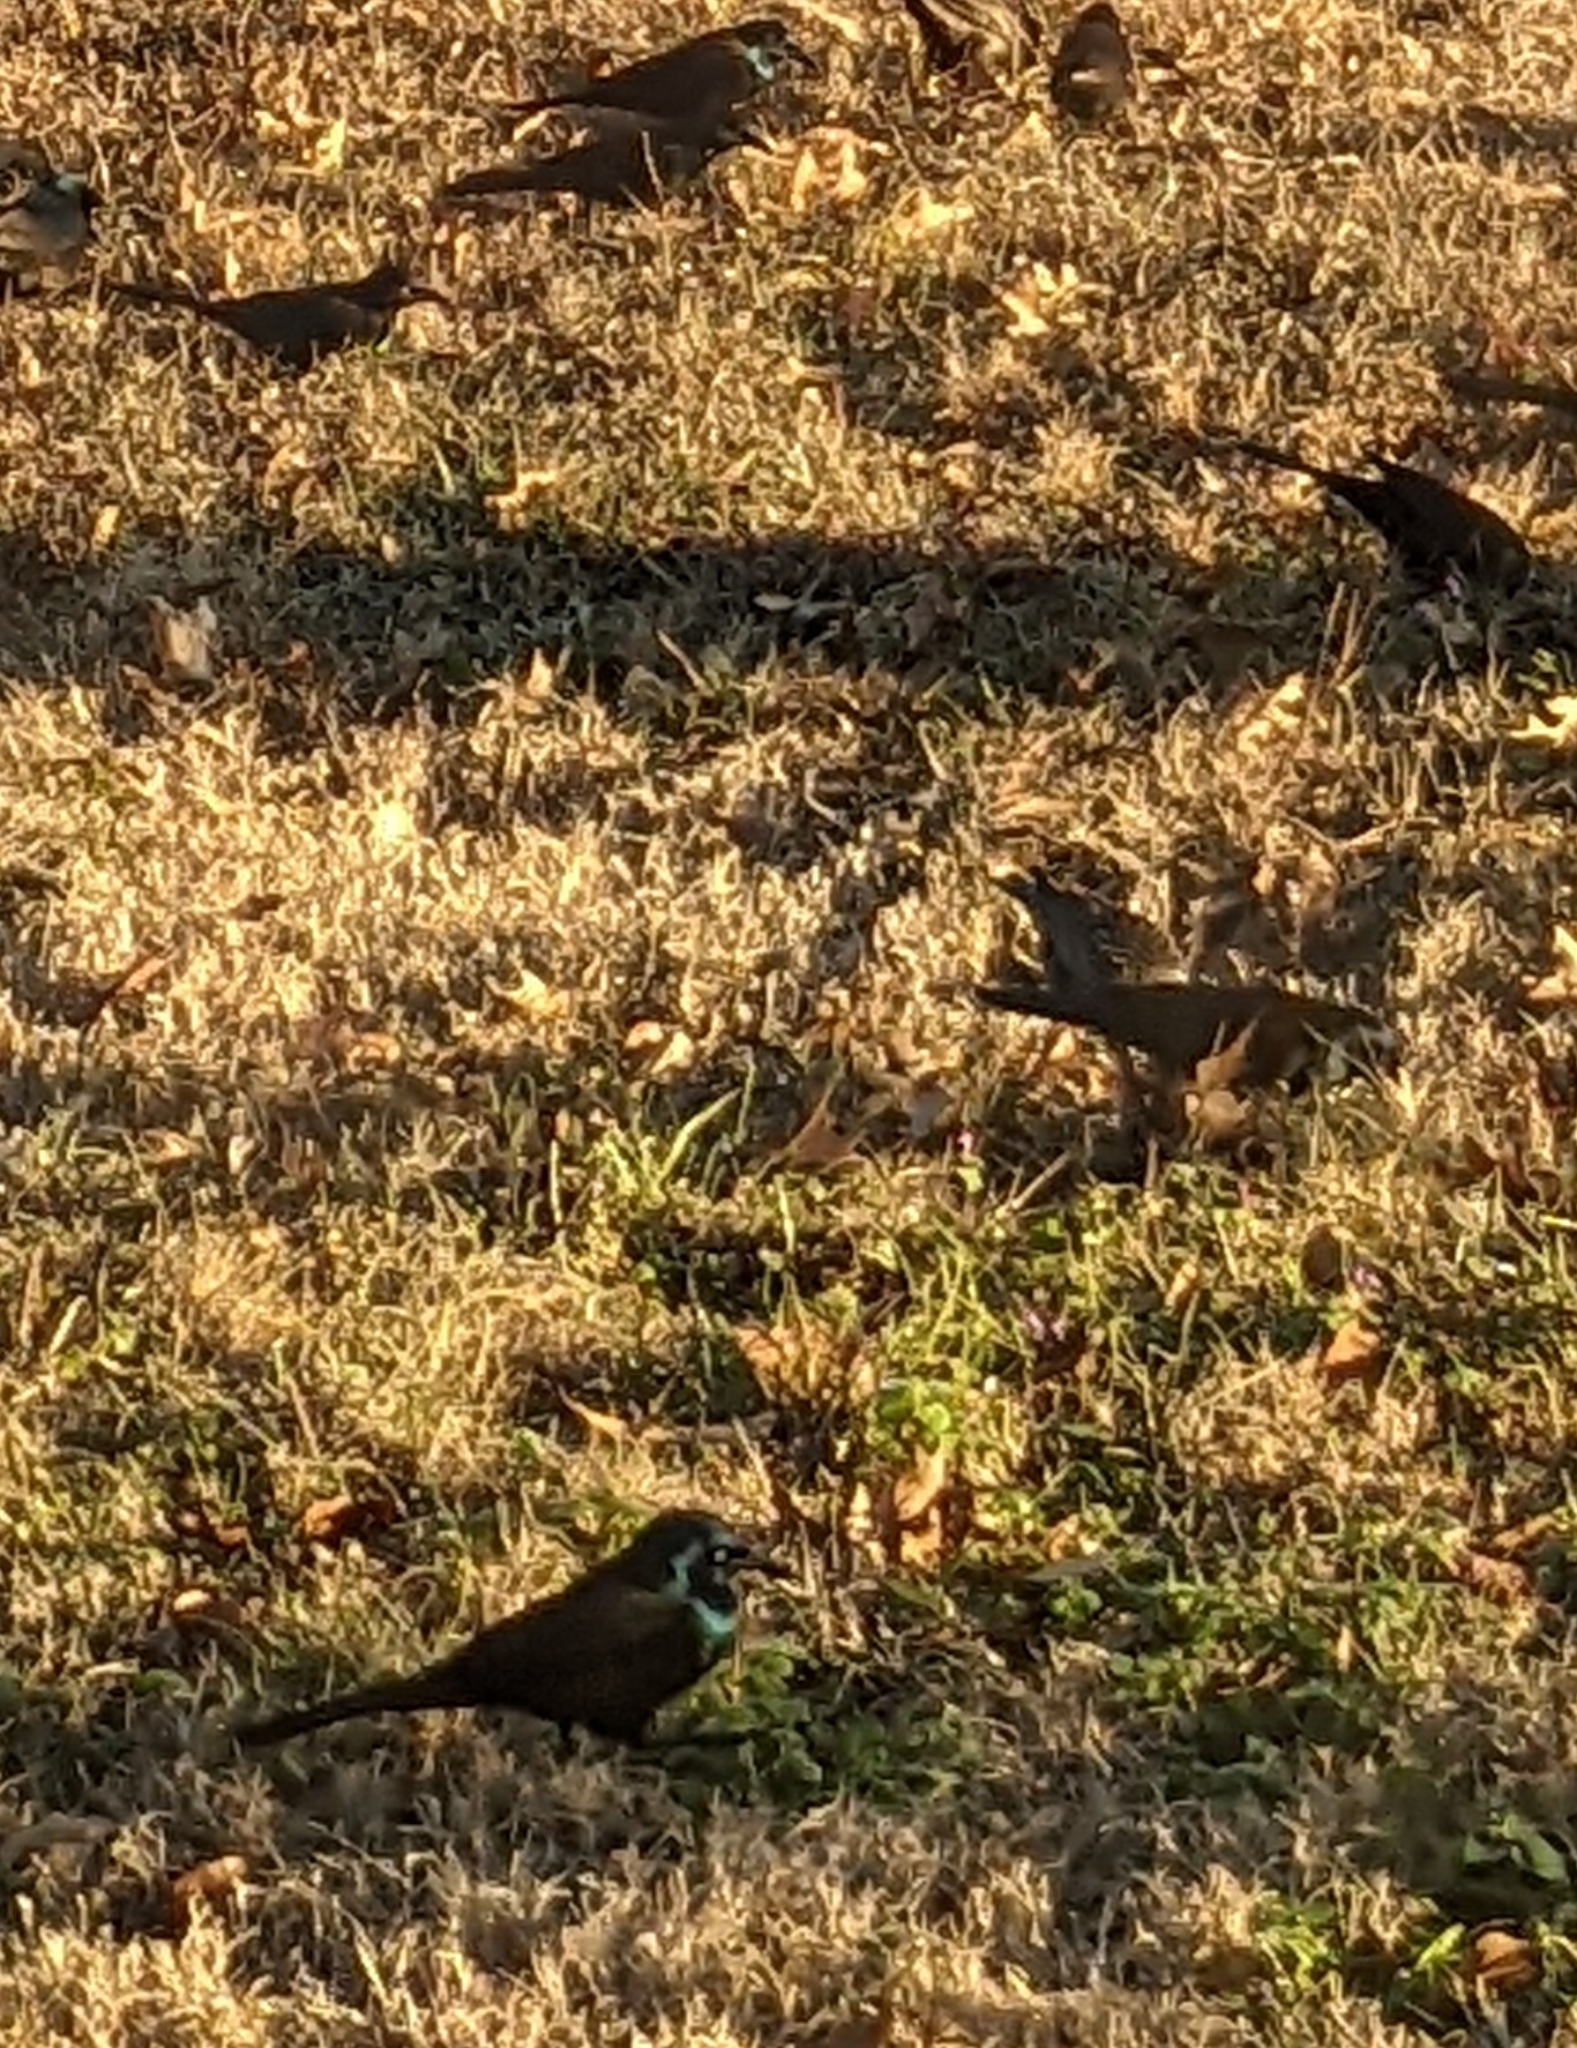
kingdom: Animalia
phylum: Chordata
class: Aves
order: Passeriformes
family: Icteridae
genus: Quiscalus
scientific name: Quiscalus quiscula
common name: Common grackle
